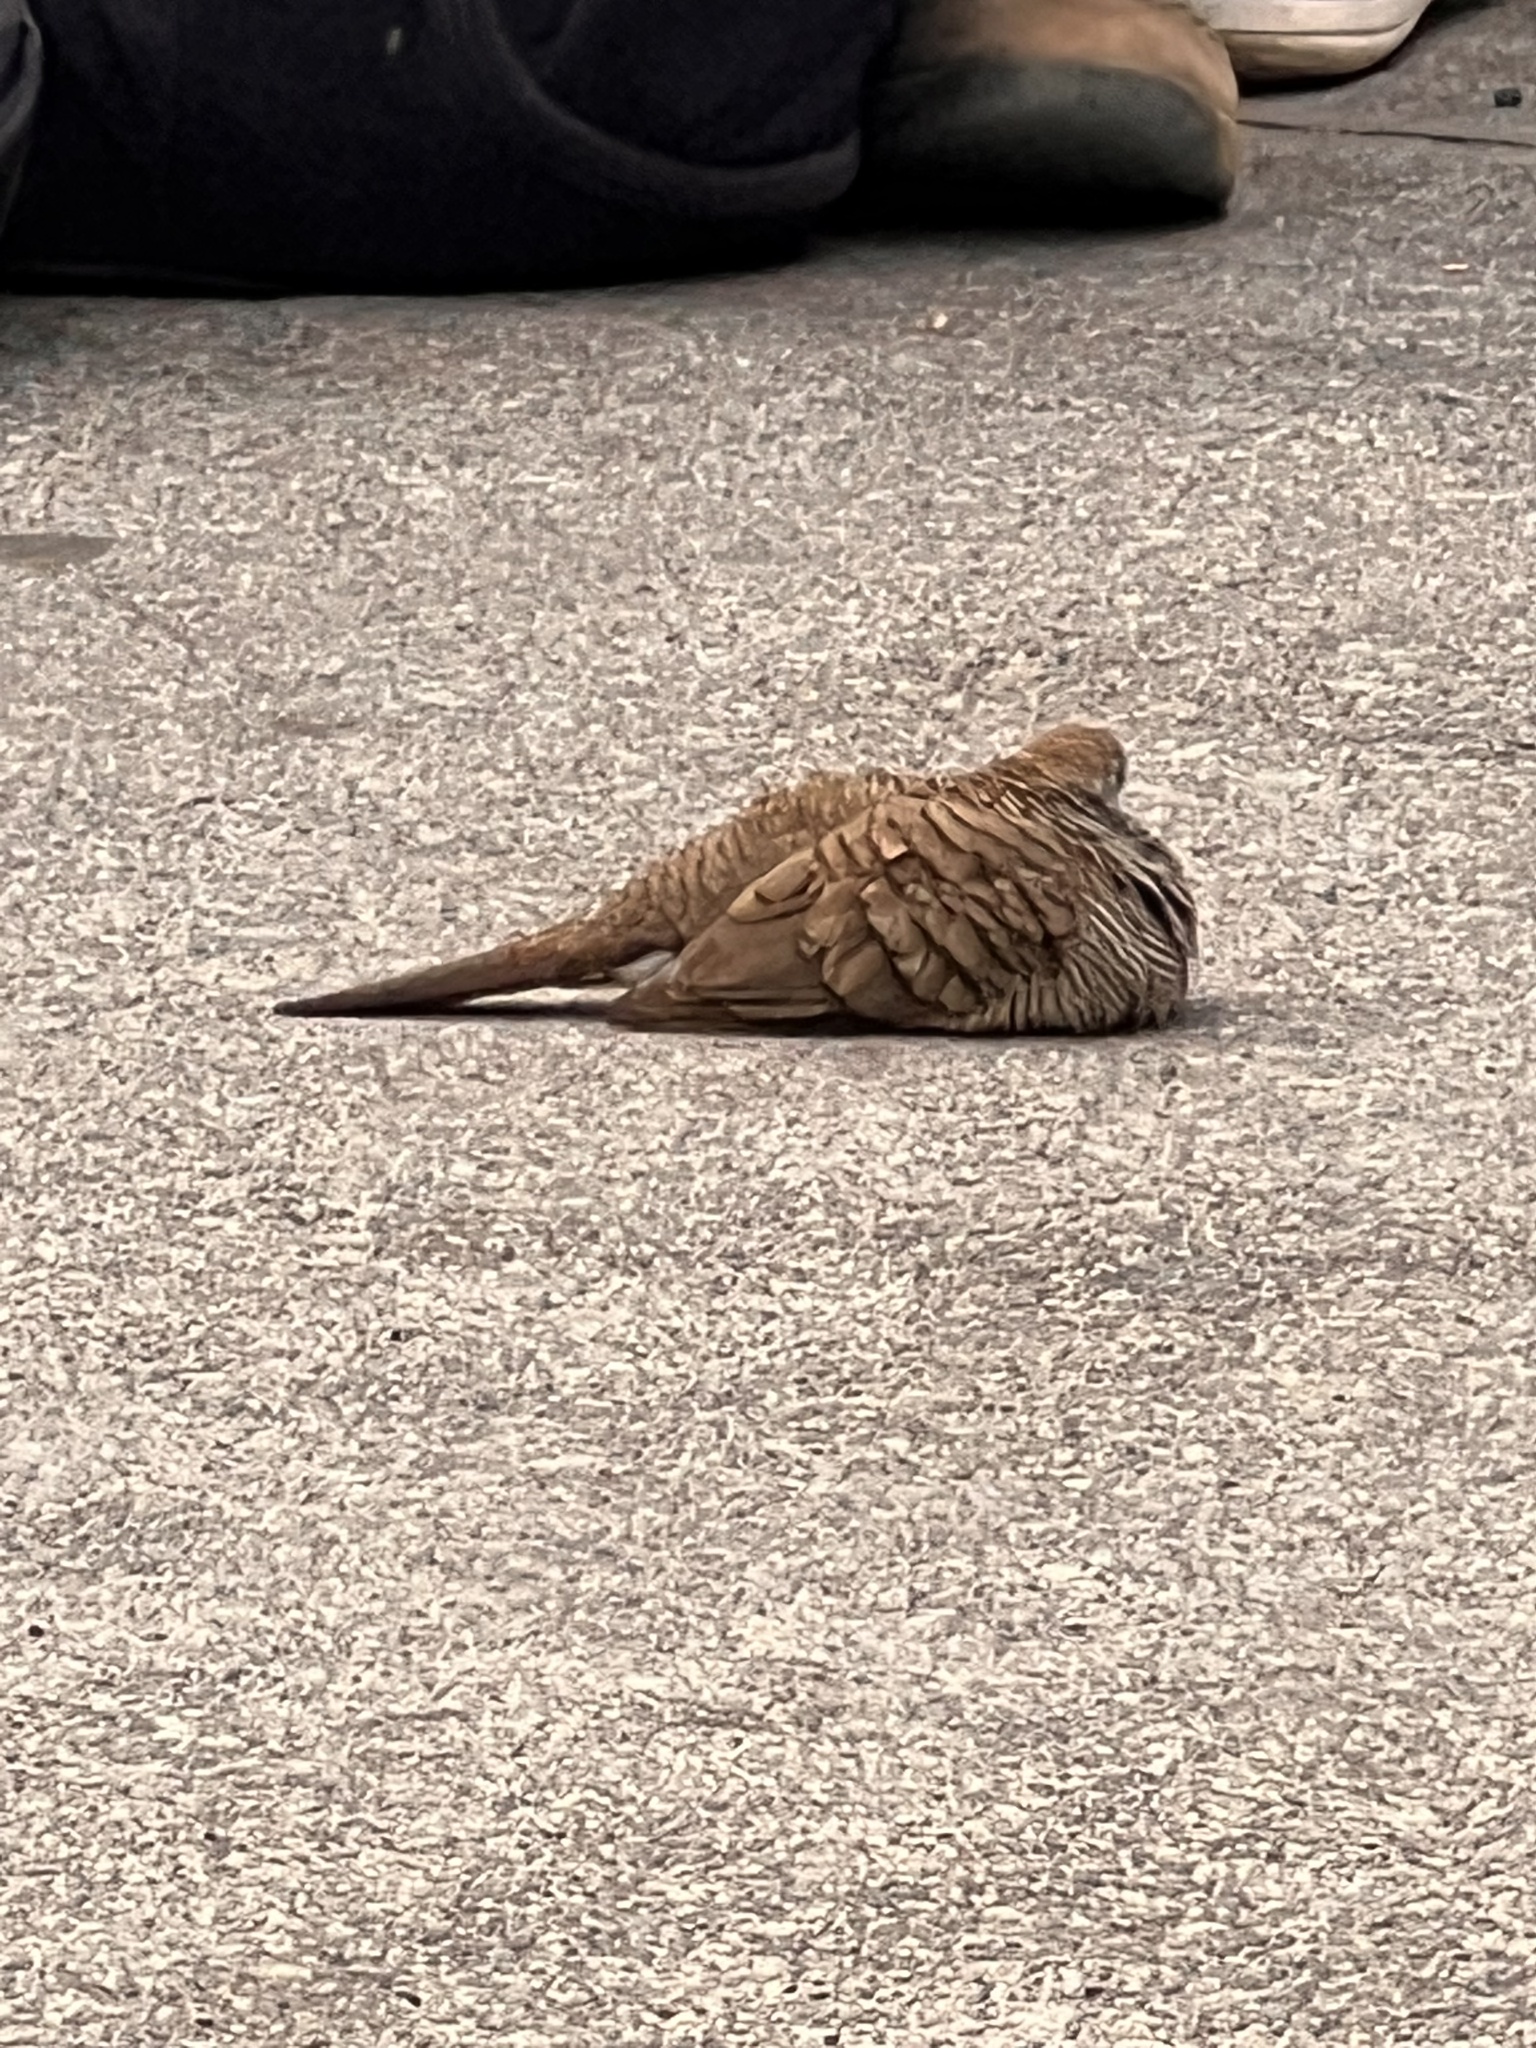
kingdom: Animalia
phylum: Chordata
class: Aves
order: Columbiformes
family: Columbidae
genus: Geopelia
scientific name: Geopelia striata
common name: Zebra dove
